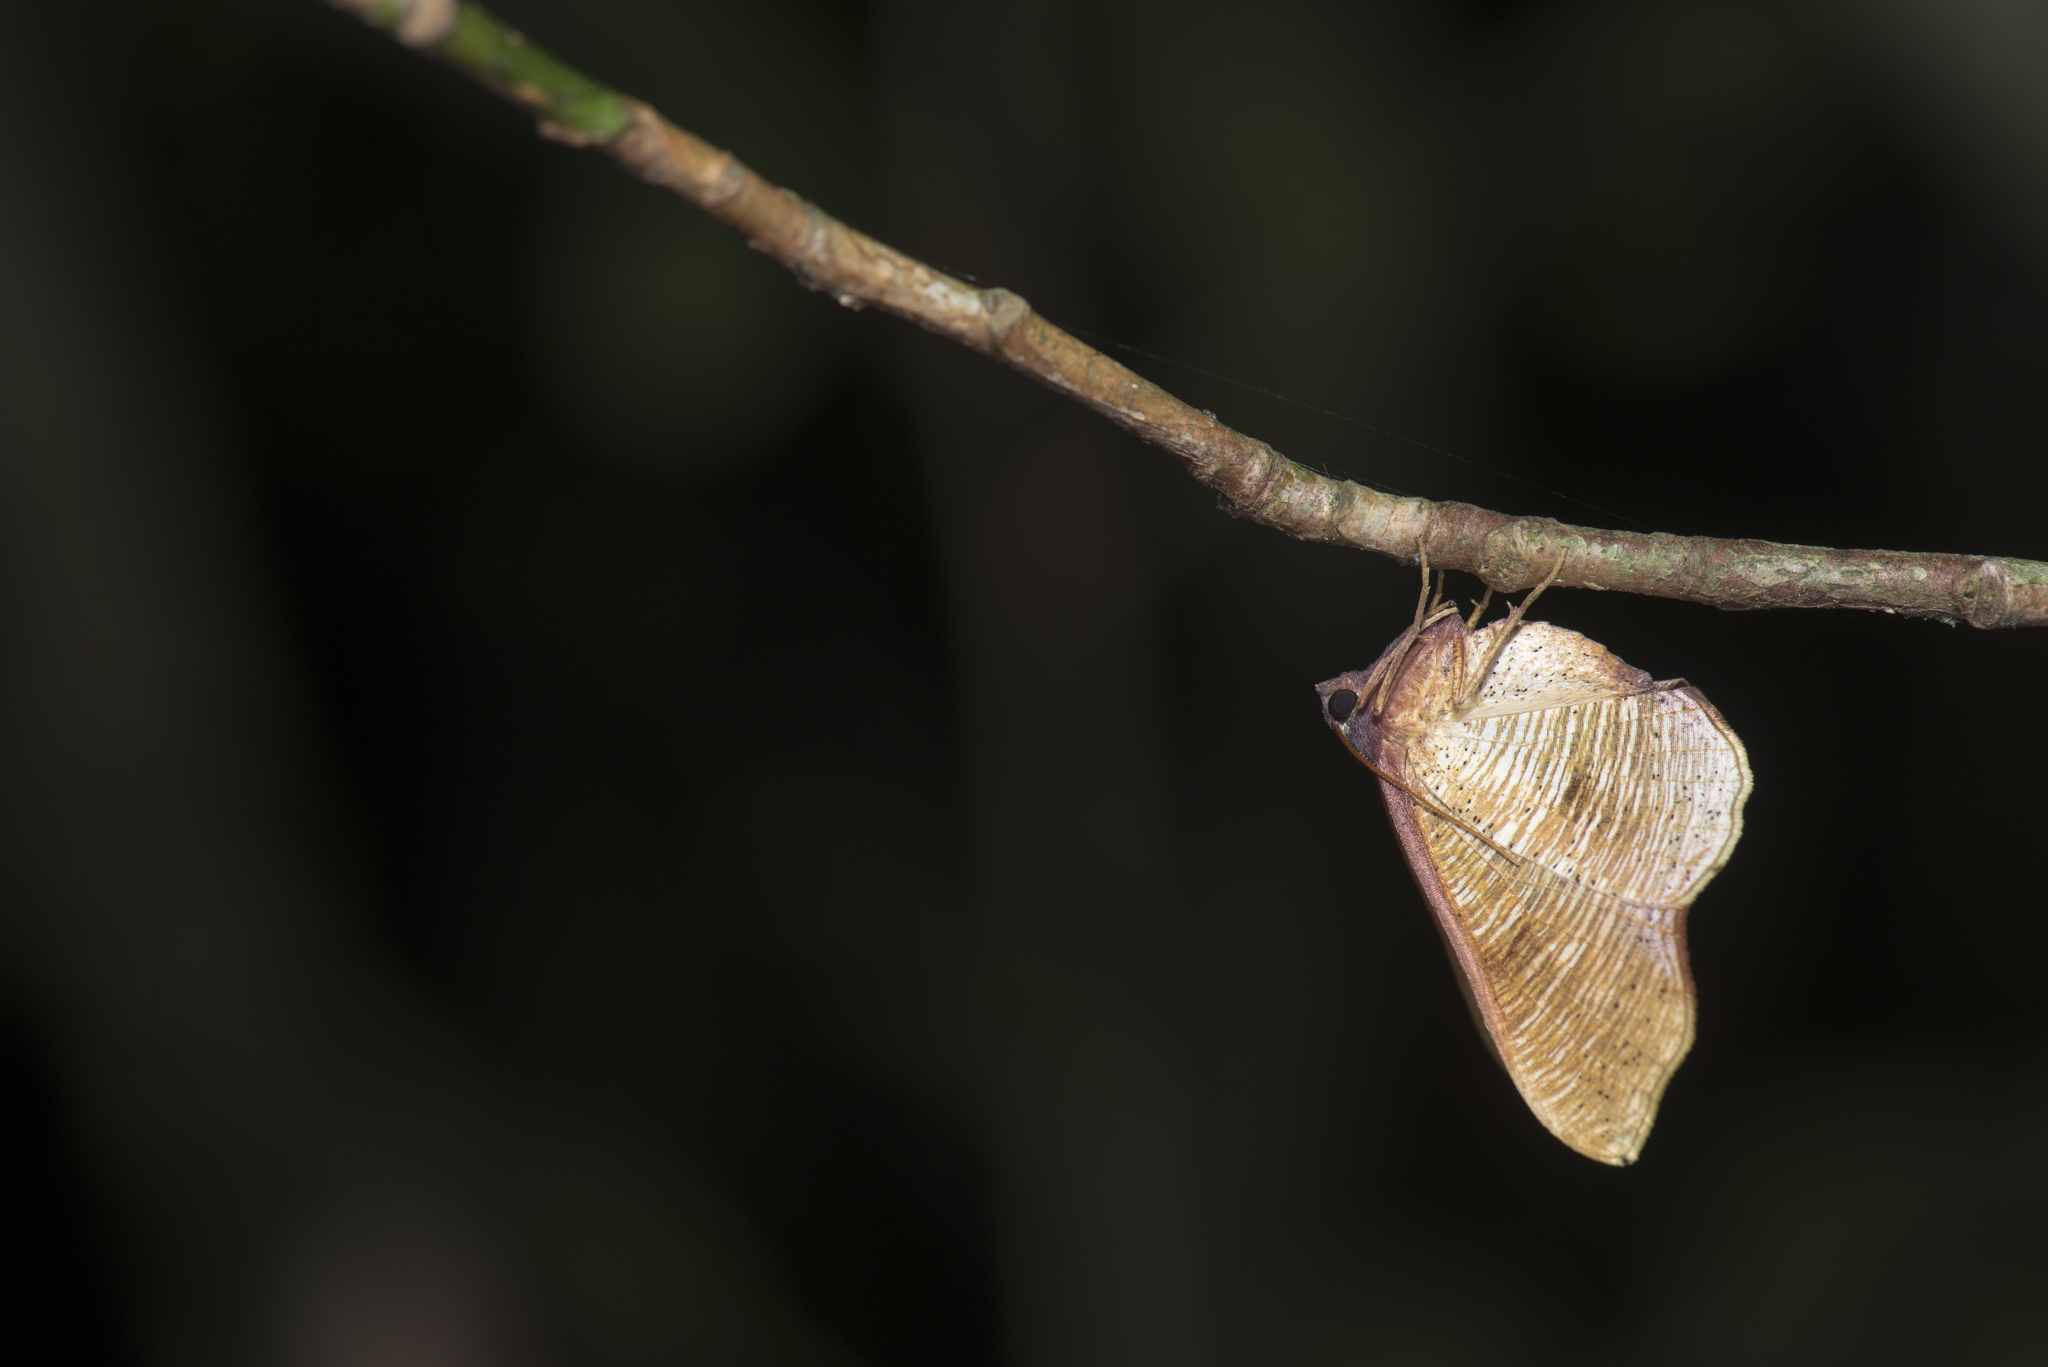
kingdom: Animalia
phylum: Arthropoda
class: Insecta
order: Lepidoptera
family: Geometridae
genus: Plagodis
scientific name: Plagodis reticulata
